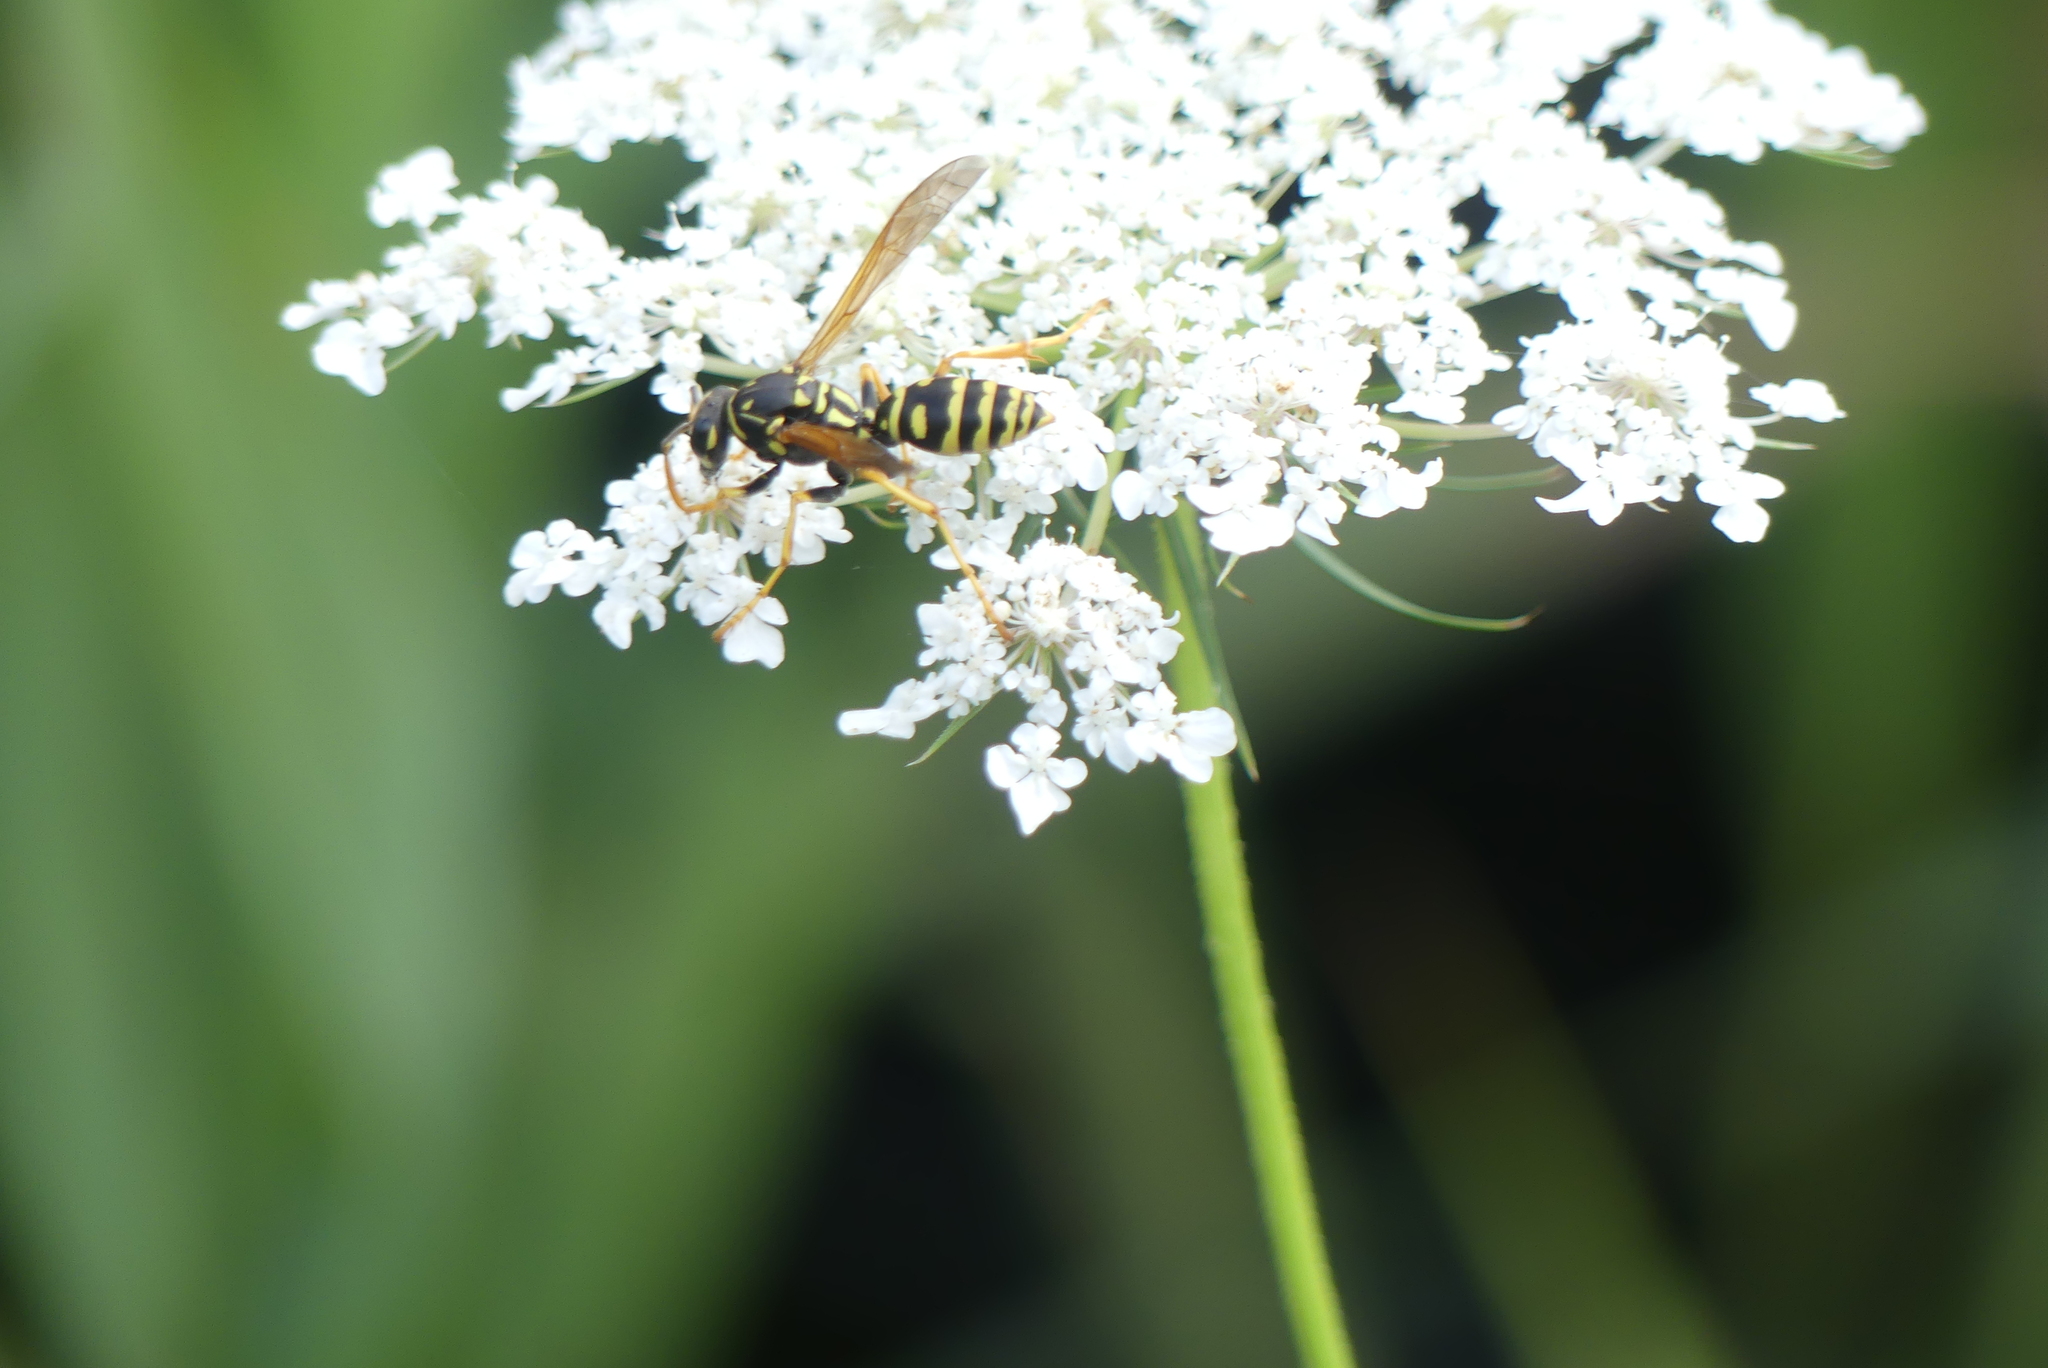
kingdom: Animalia
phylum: Arthropoda
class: Insecta
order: Hymenoptera
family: Eumenidae
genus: Polistes
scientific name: Polistes dominula
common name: Paper wasp
